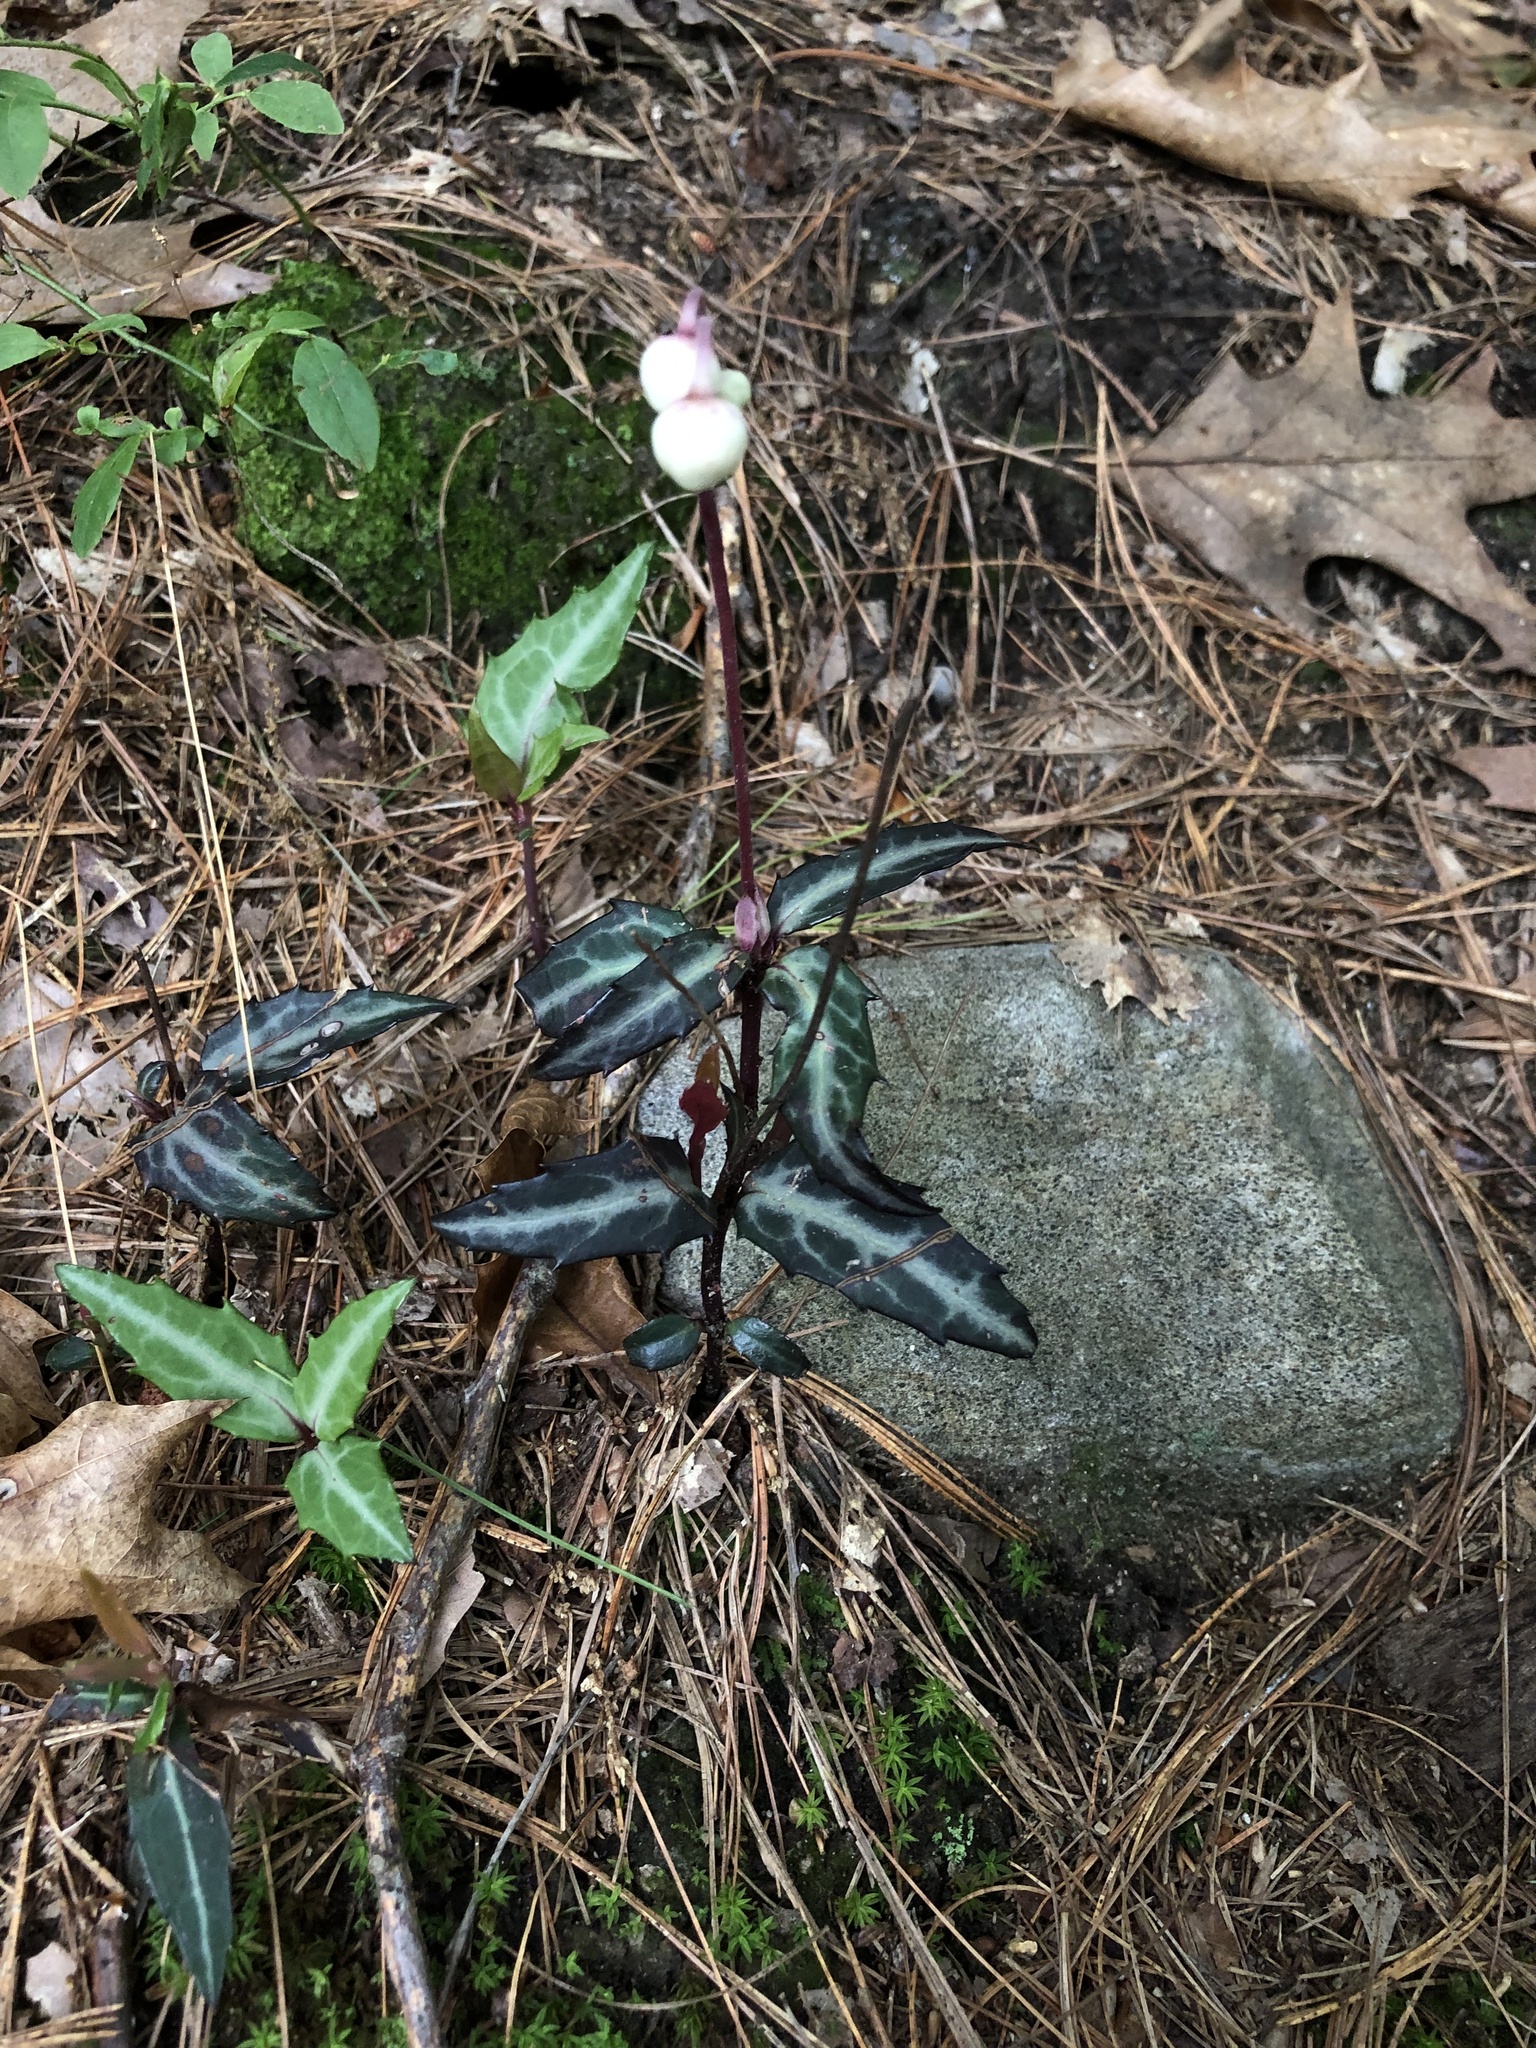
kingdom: Plantae
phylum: Tracheophyta
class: Magnoliopsida
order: Ericales
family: Ericaceae
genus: Chimaphila
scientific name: Chimaphila maculata
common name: Spotted pipsissewa
